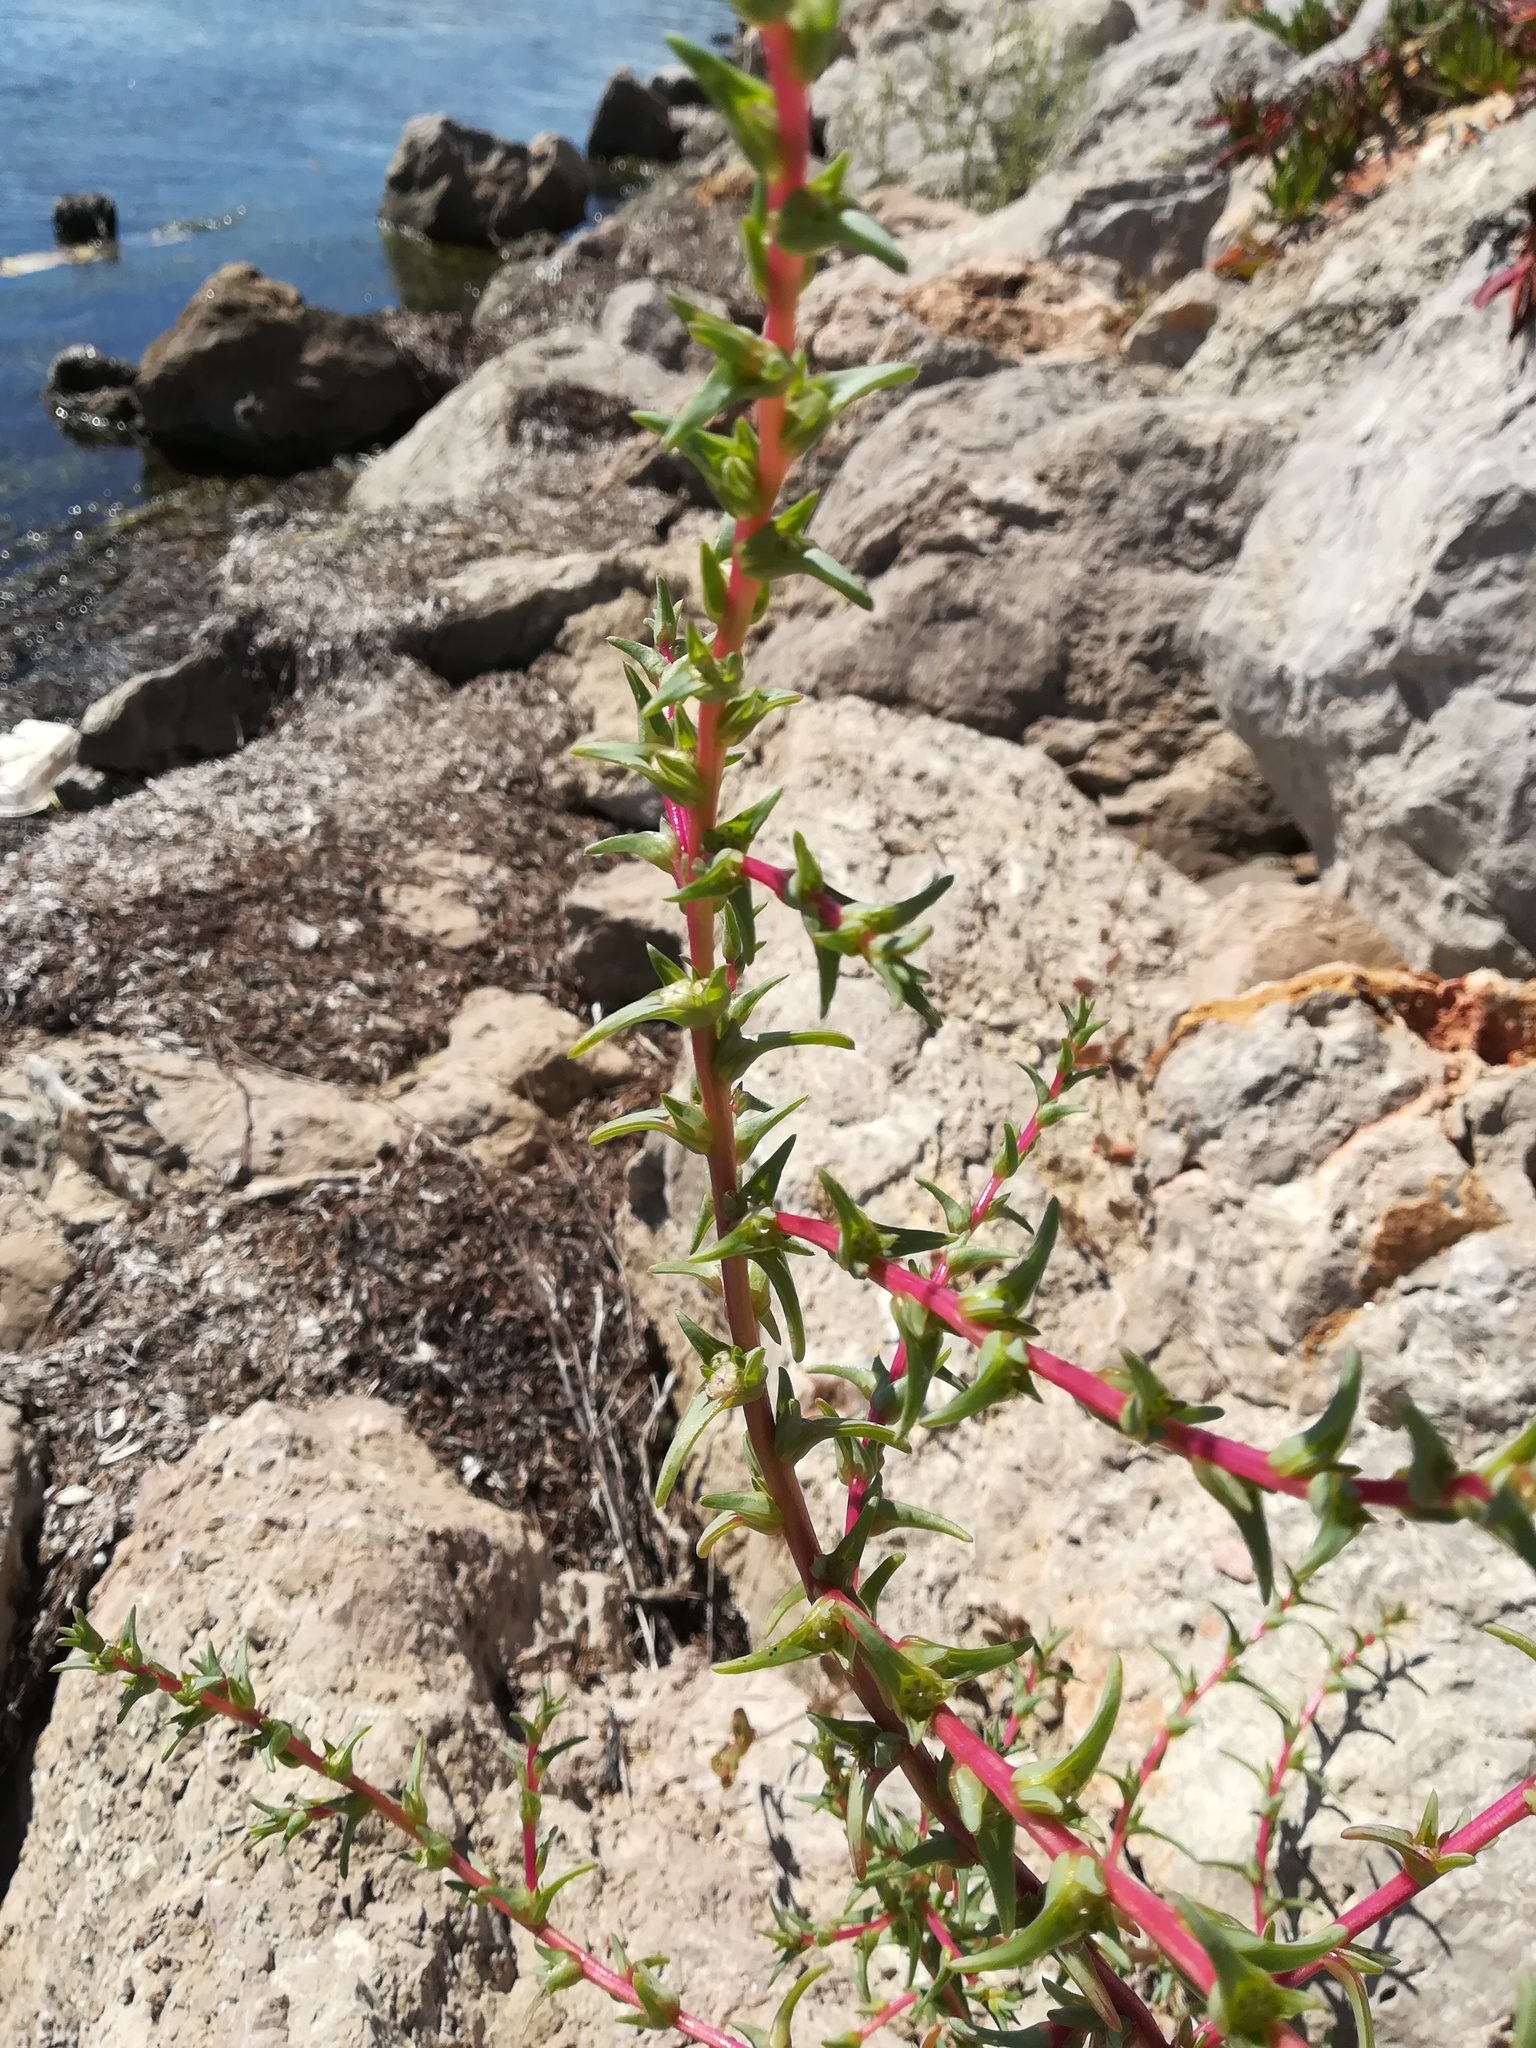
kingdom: Plantae
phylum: Tracheophyta
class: Magnoliopsida
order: Caryophyllales
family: Amaranthaceae
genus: Salsola
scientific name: Salsola soda
